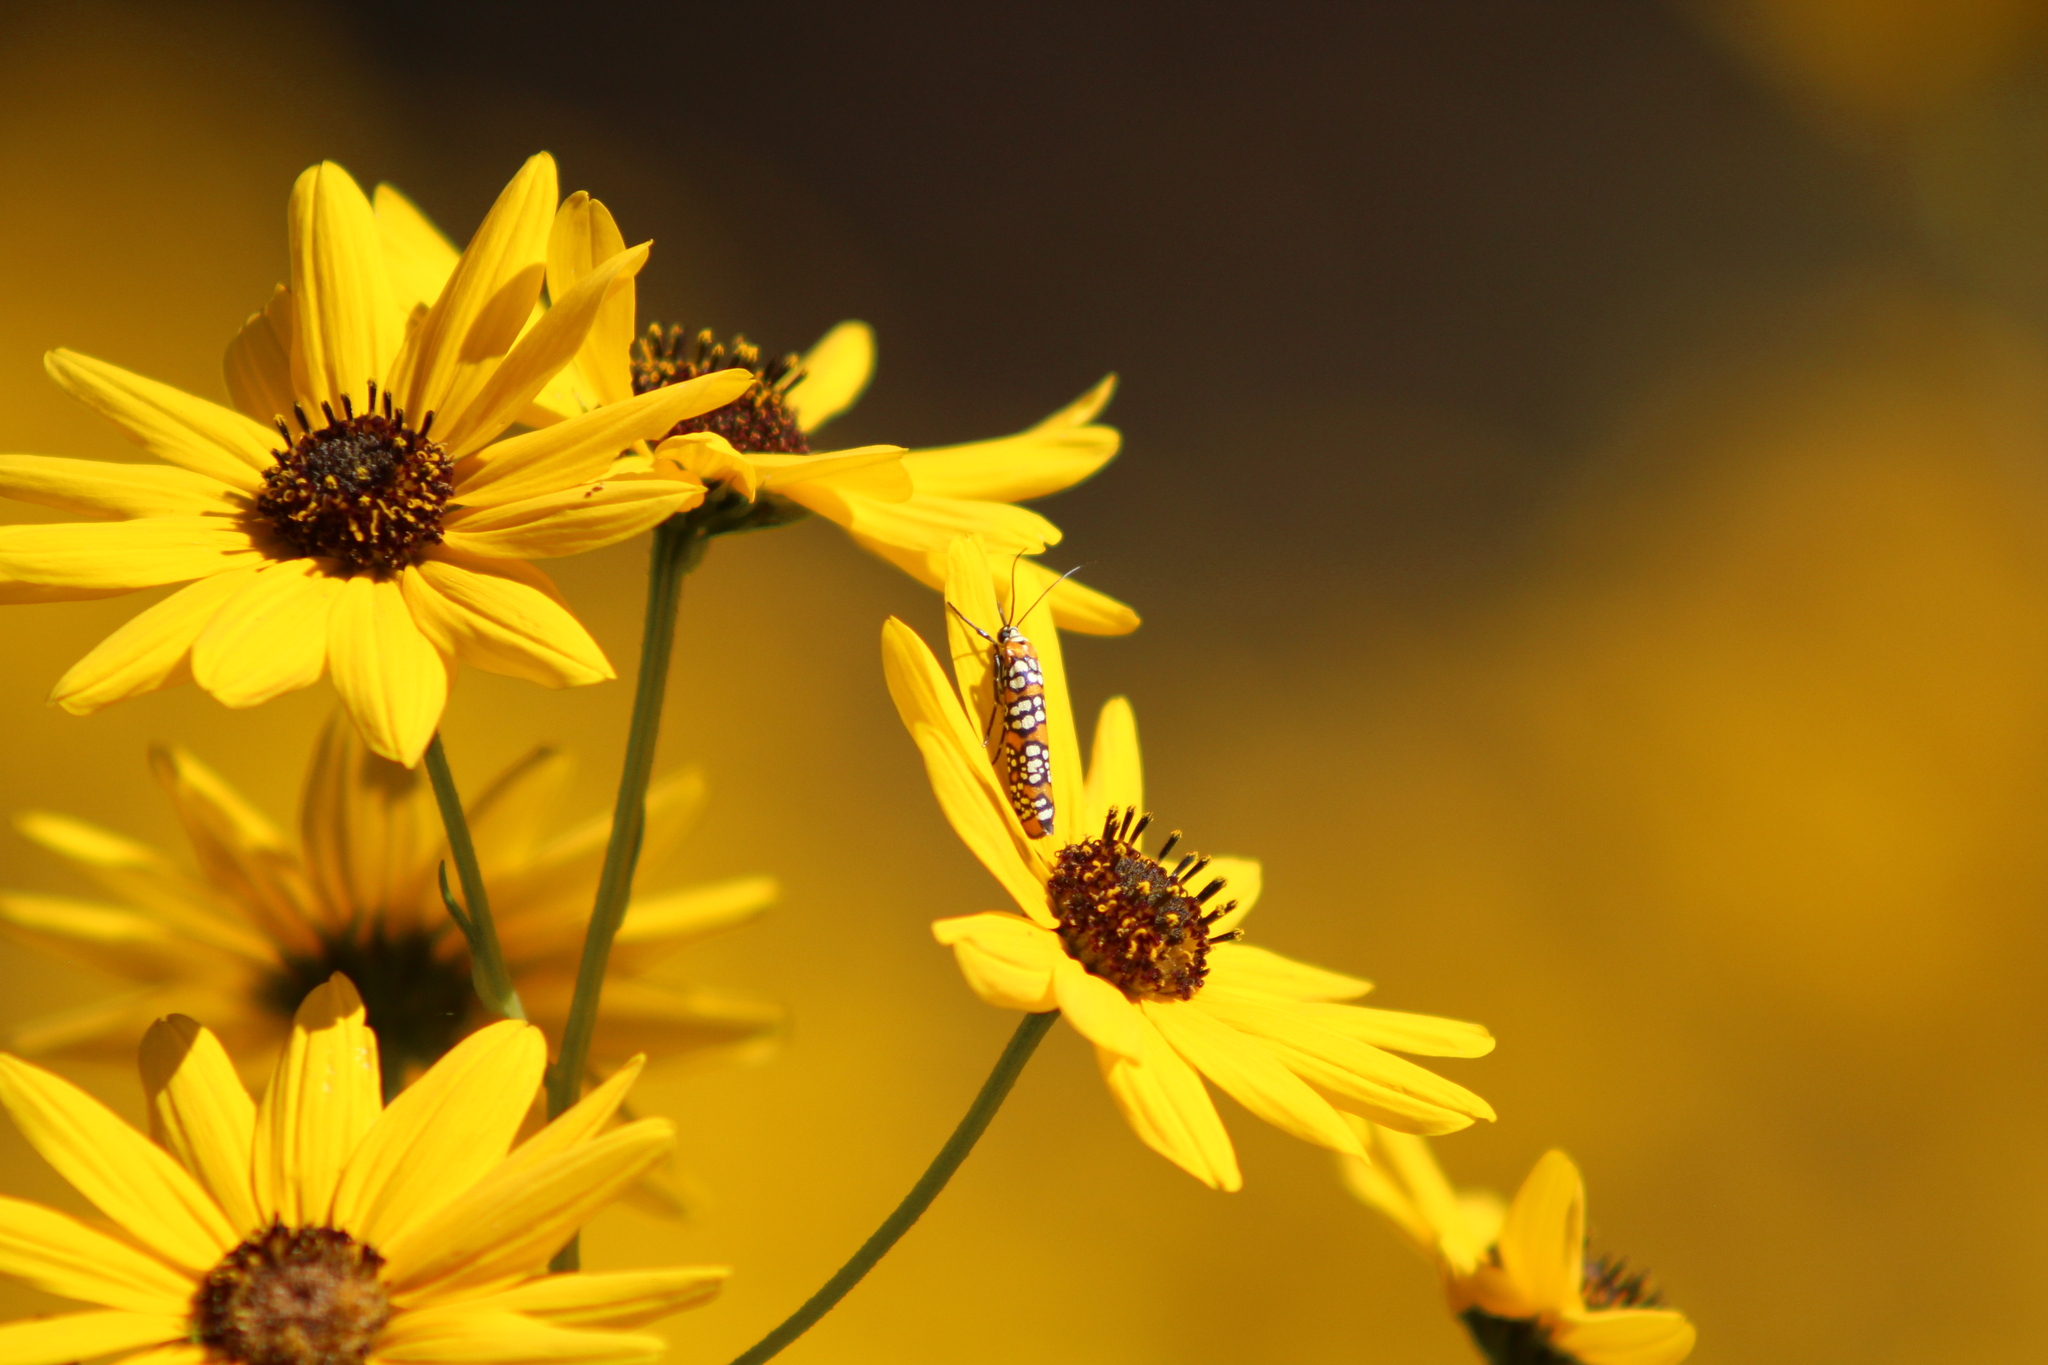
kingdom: Animalia
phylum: Arthropoda
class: Insecta
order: Lepidoptera
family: Attevidae
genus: Atteva
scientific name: Atteva punctella
